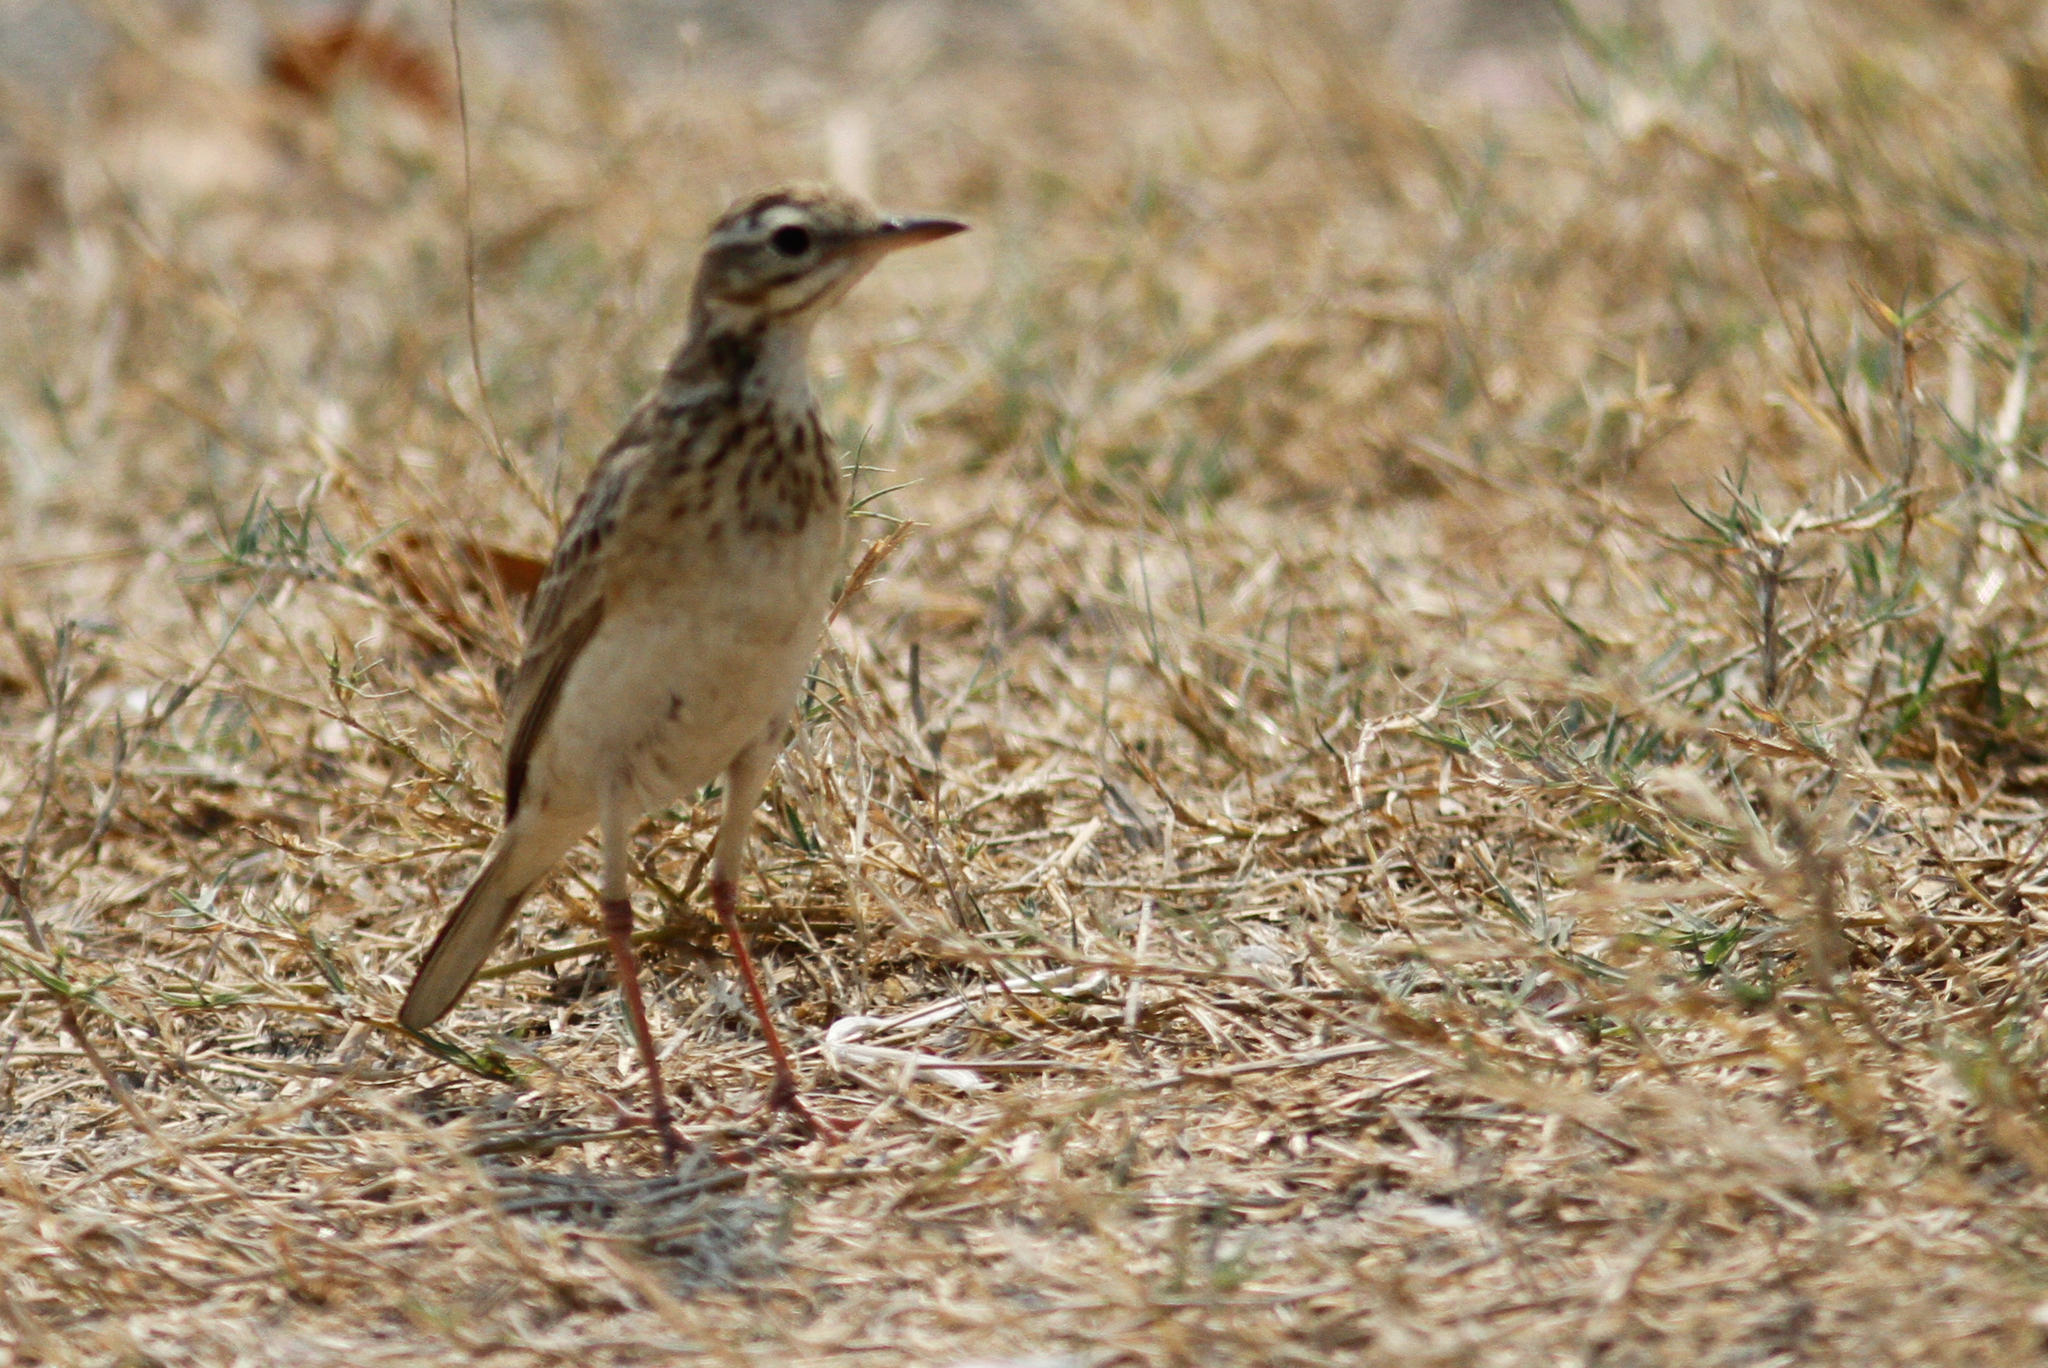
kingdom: Animalia
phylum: Chordata
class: Aves
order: Passeriformes
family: Motacillidae
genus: Anthus
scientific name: Anthus rufulus
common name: Paddyfield pipit
